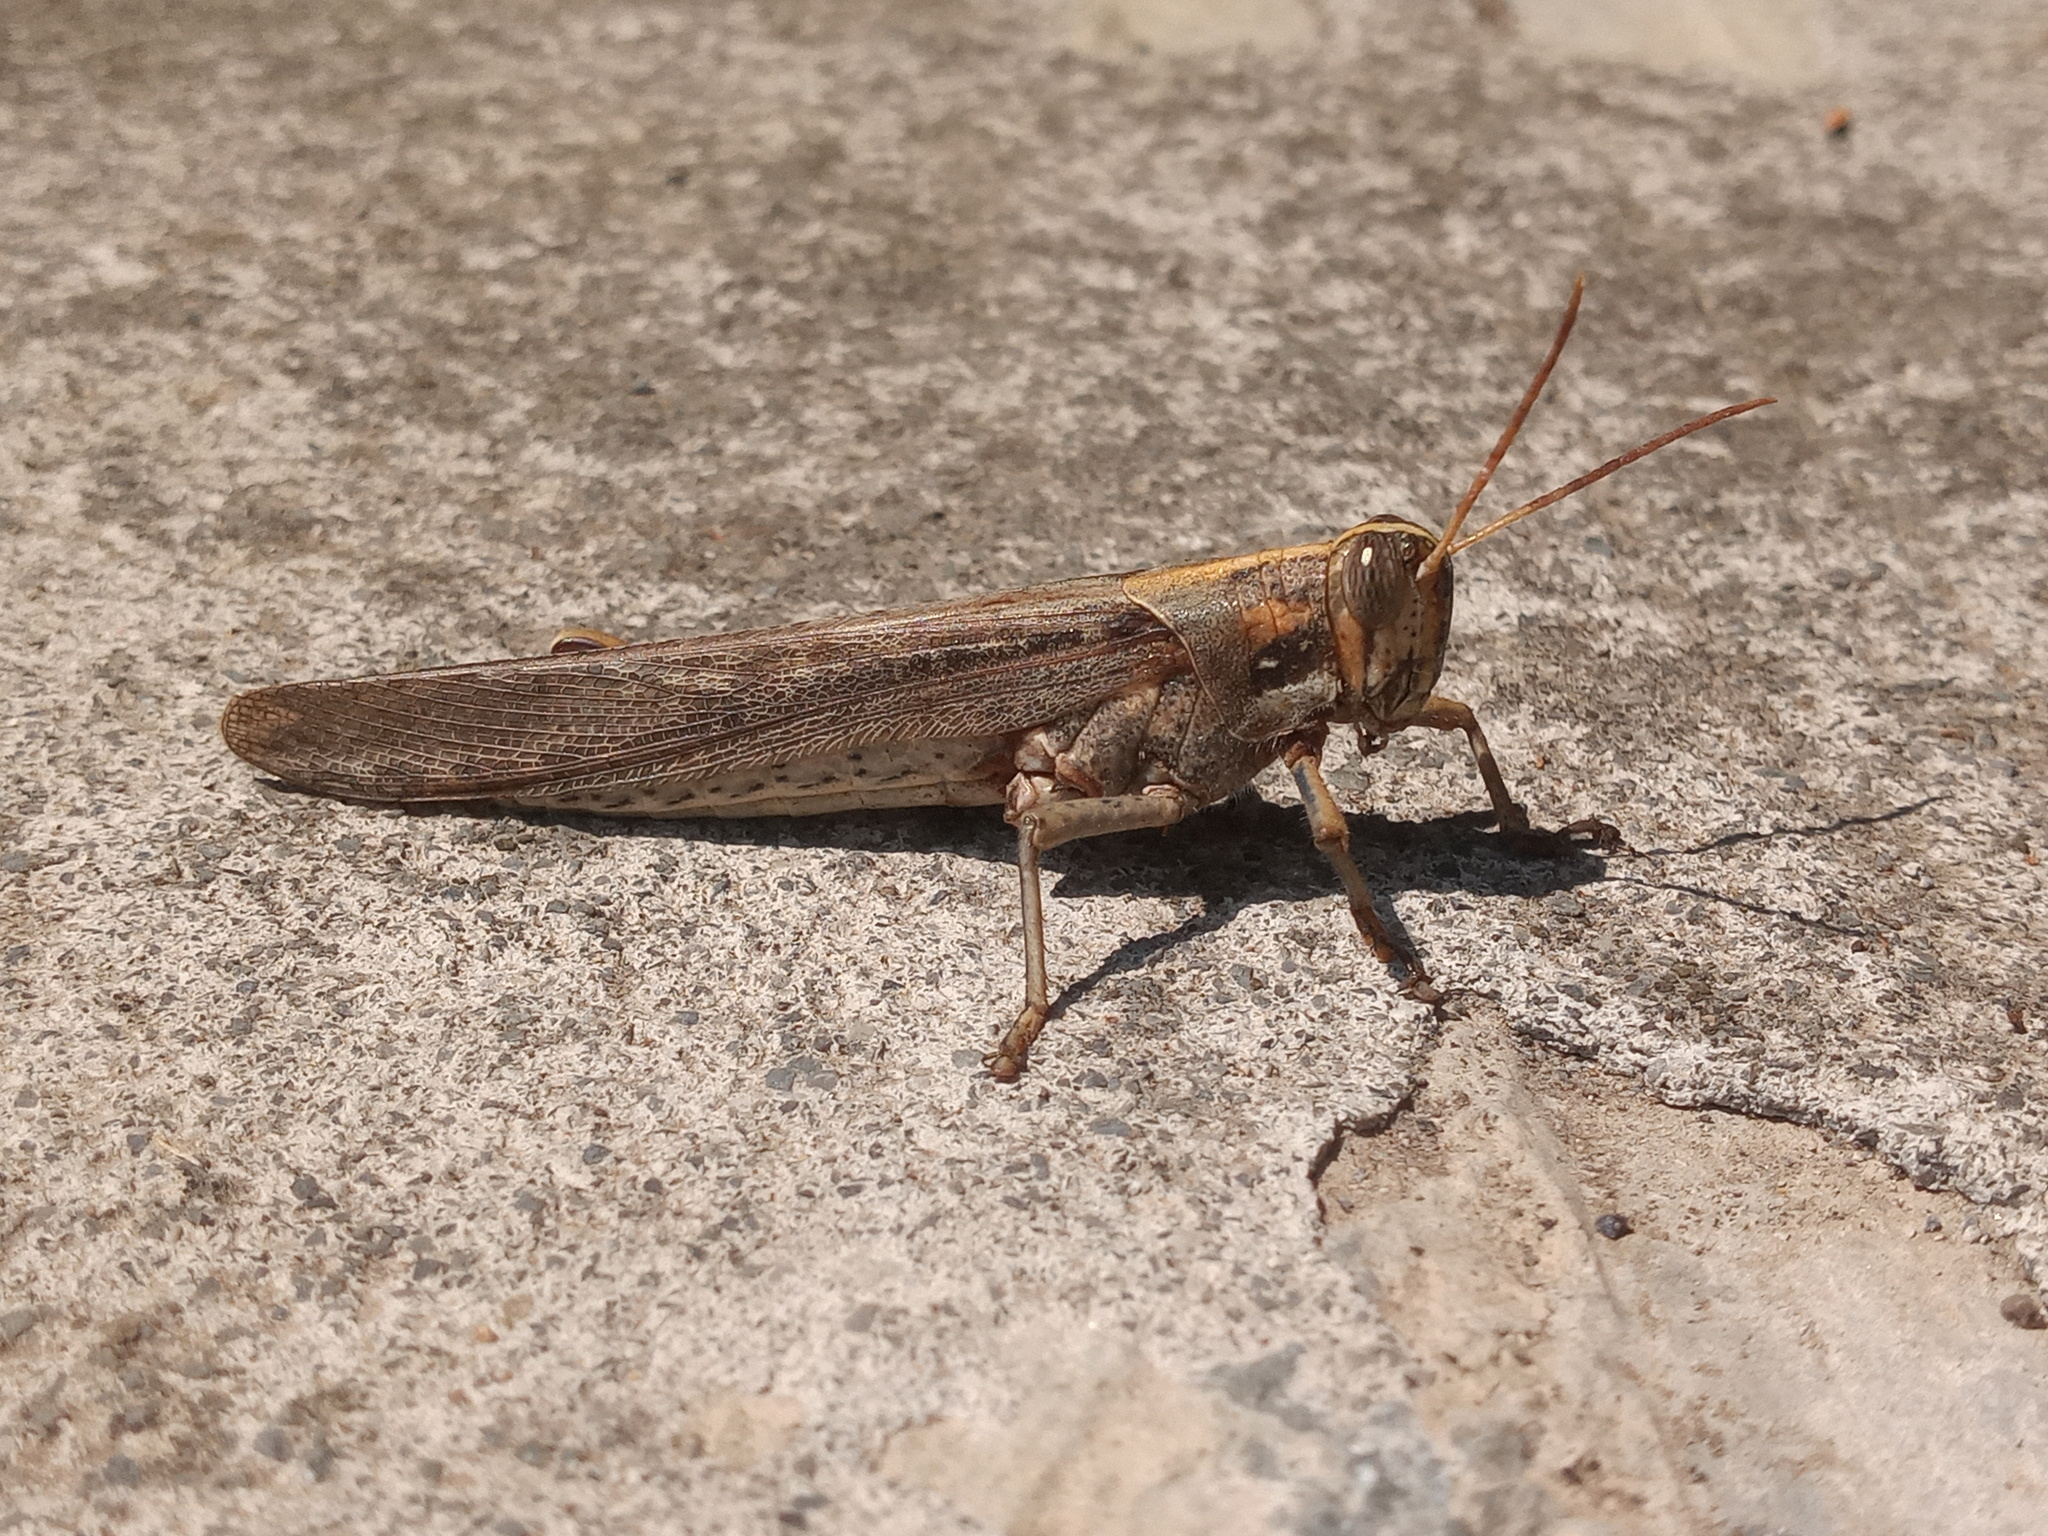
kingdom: Animalia
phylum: Arthropoda
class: Insecta
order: Orthoptera
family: Acrididae
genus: Schistocerca
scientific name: Schistocerca nitens
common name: Vagrant grasshopper
